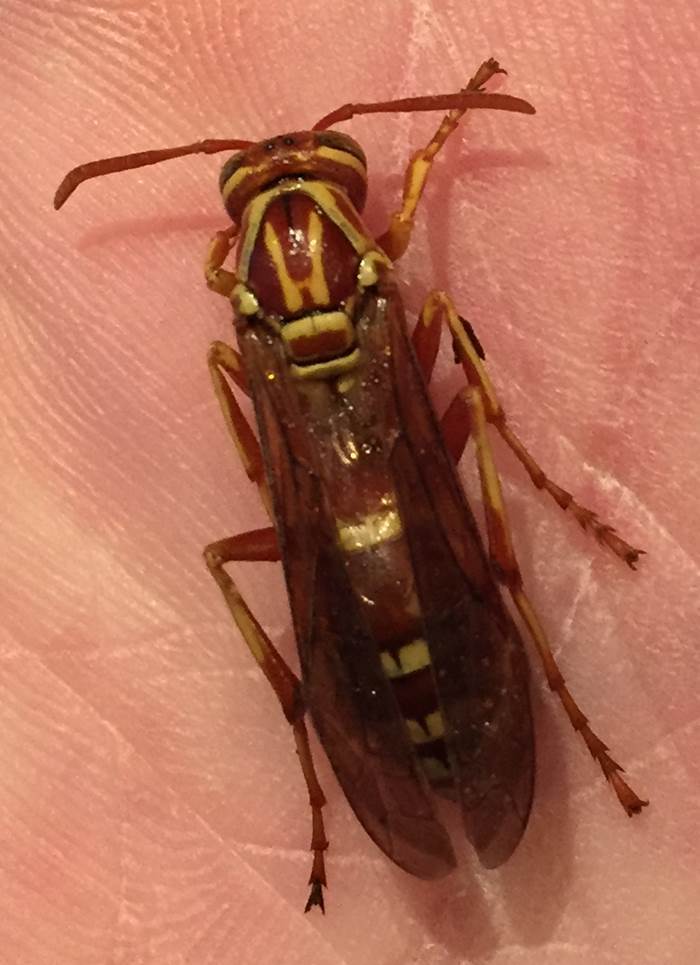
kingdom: Animalia
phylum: Arthropoda
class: Insecta
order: Hymenoptera
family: Eumenidae
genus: Polistes
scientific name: Polistes apachus
